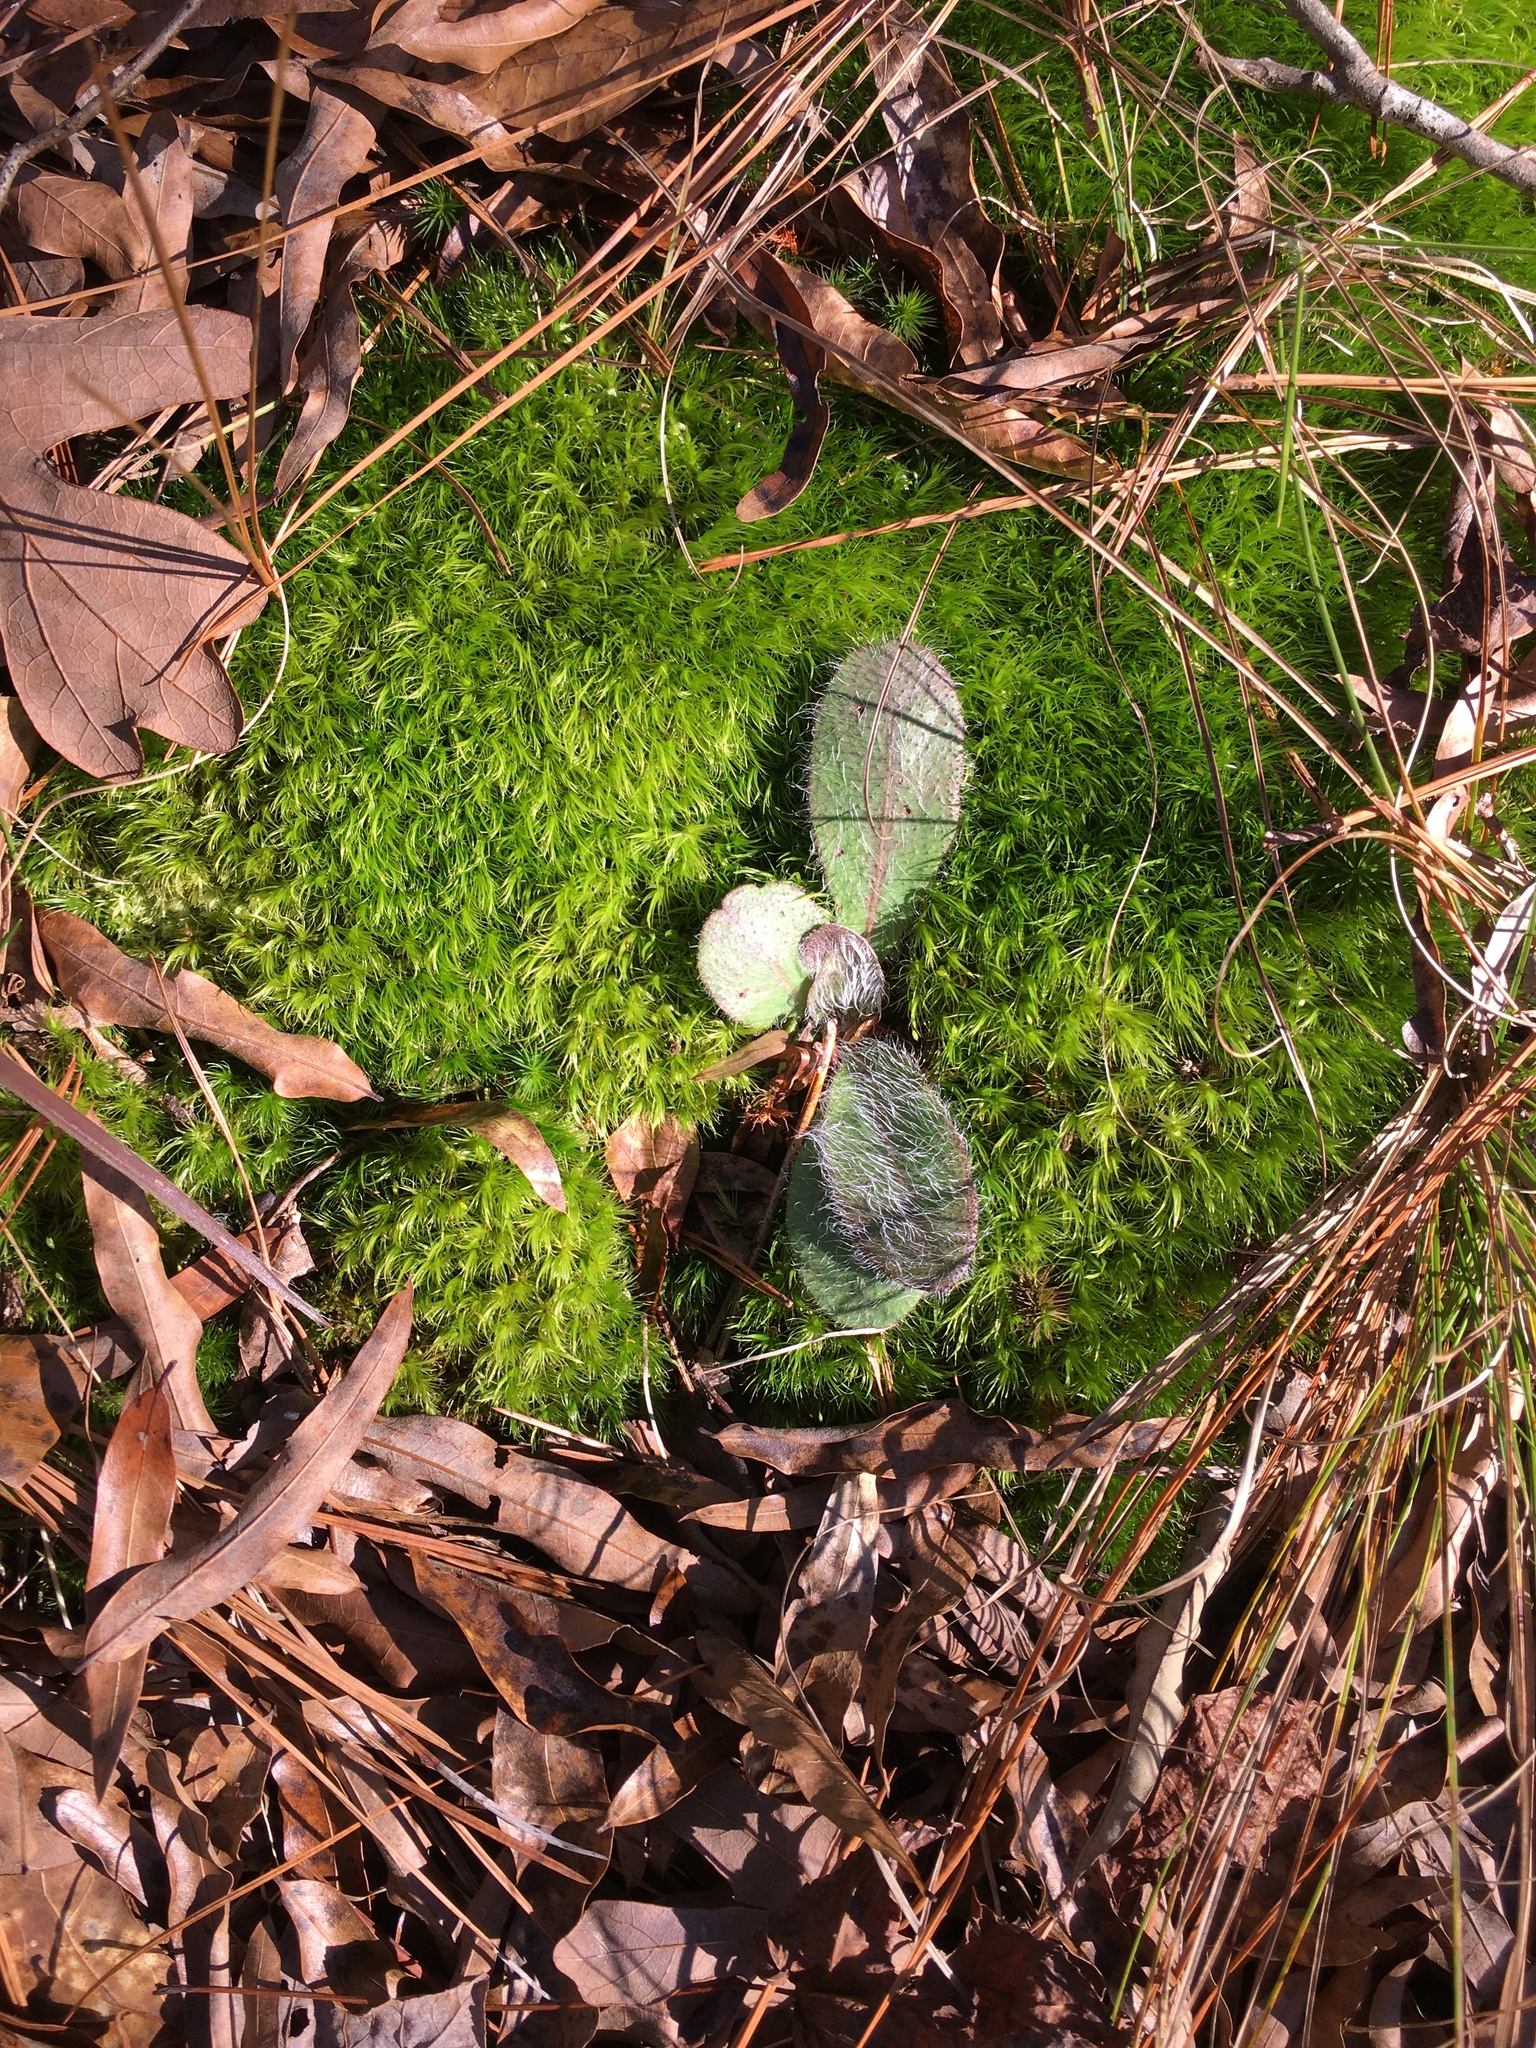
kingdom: Plantae
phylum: Tracheophyta
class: Magnoliopsida
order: Asterales
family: Asteraceae
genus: Hieracium
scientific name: Hieracium gronovii
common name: Beaked hawkweed
